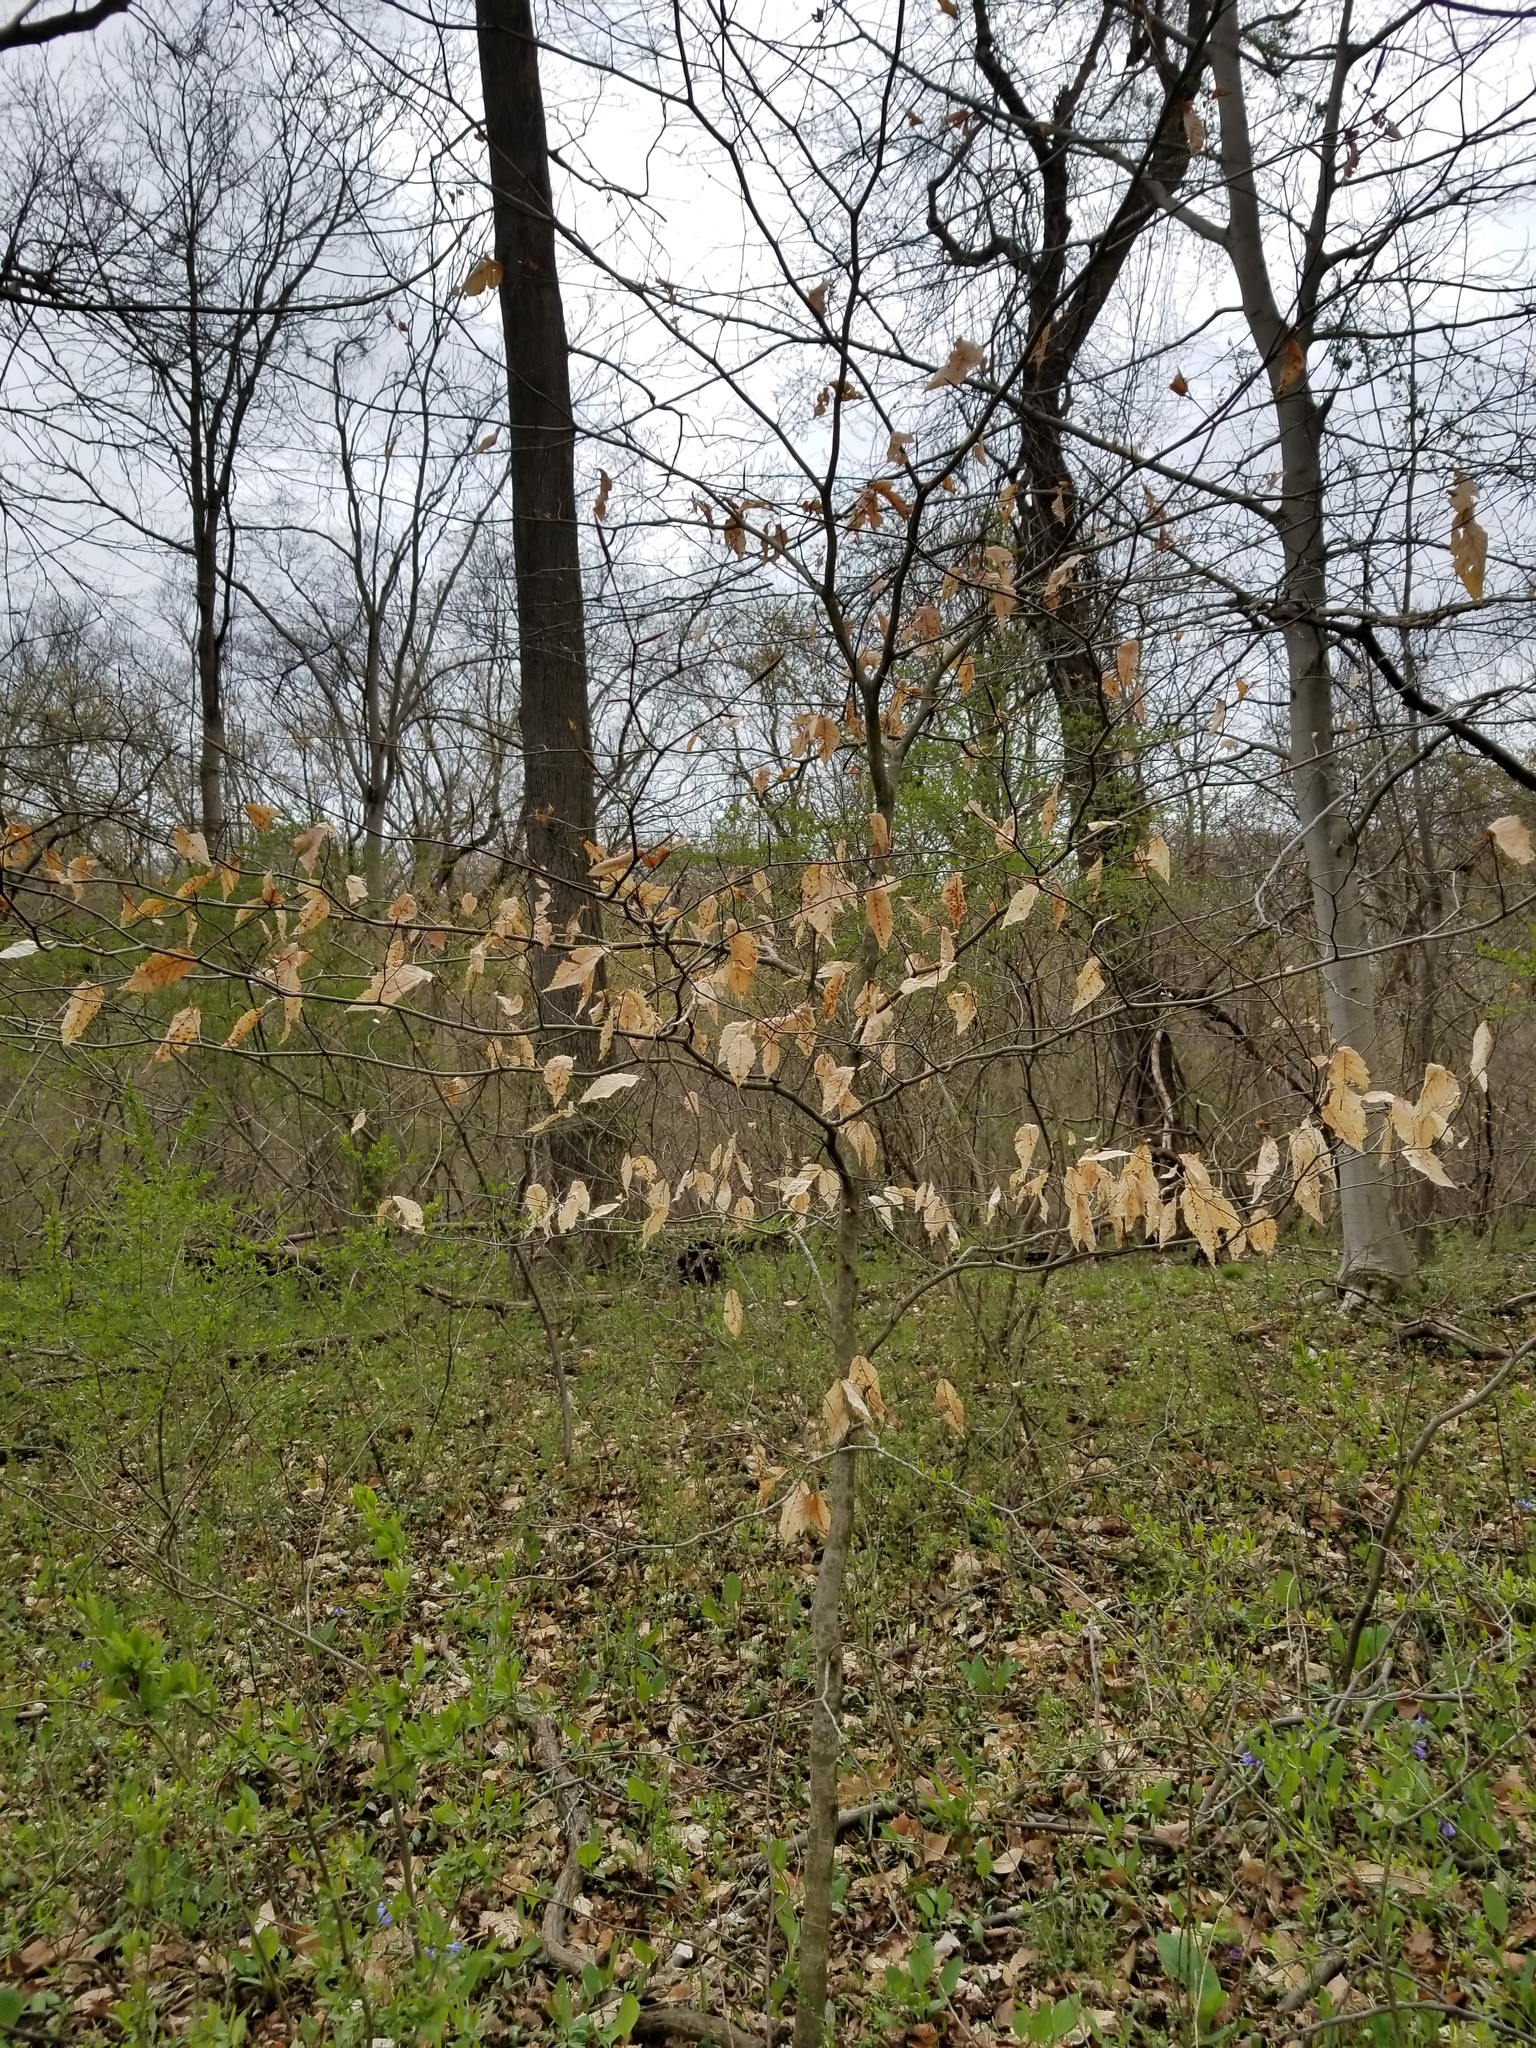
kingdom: Plantae
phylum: Tracheophyta
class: Magnoliopsida
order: Fagales
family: Fagaceae
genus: Fagus
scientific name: Fagus grandifolia
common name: American beech
